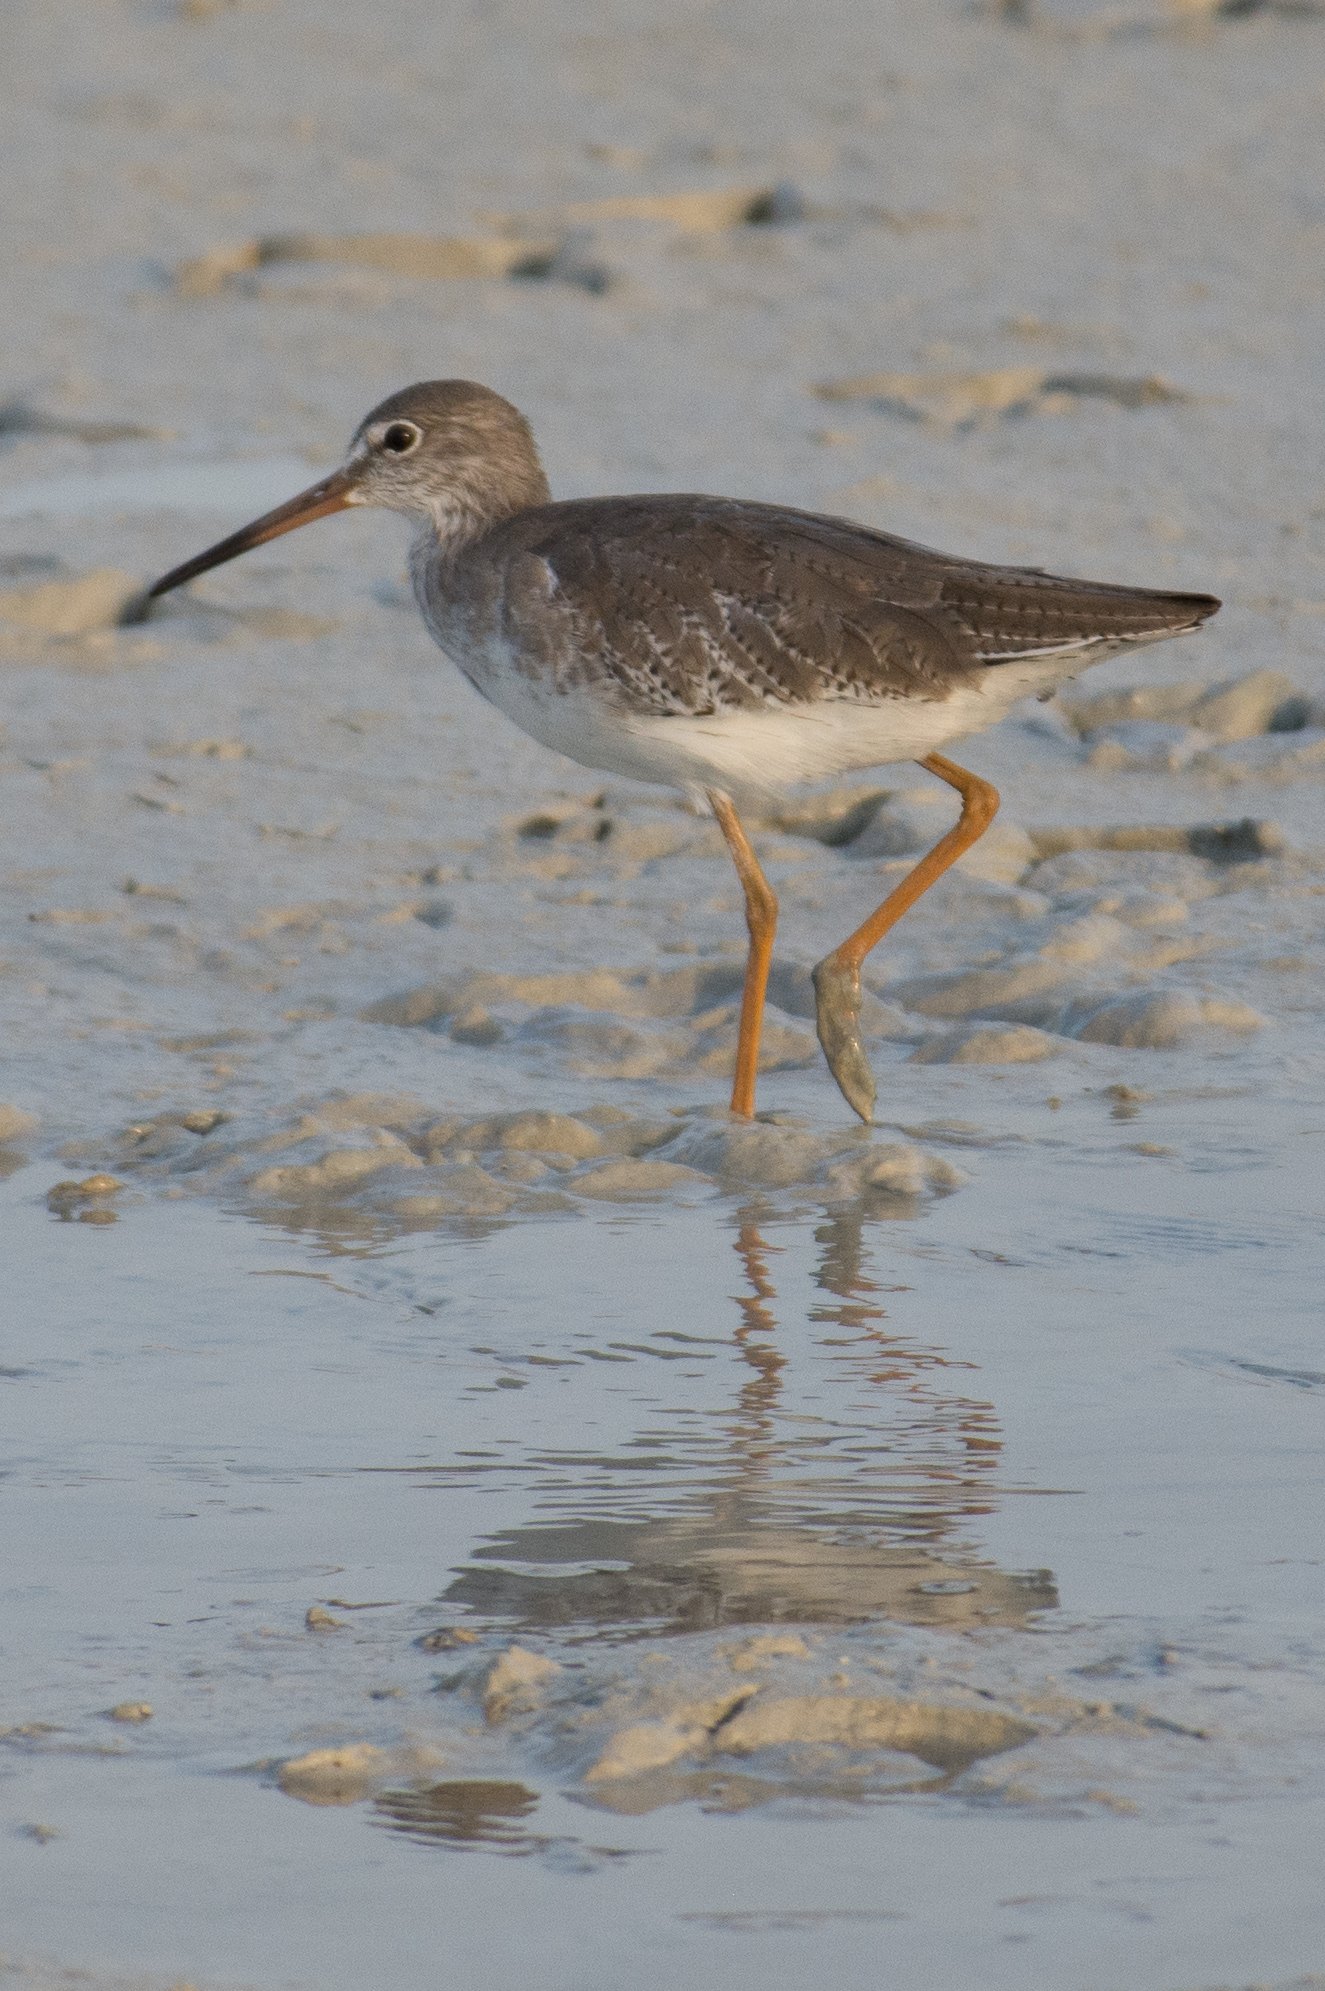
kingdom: Animalia
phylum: Chordata
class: Aves
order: Charadriiformes
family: Scolopacidae
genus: Tringa
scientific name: Tringa totanus
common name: Common redshank
